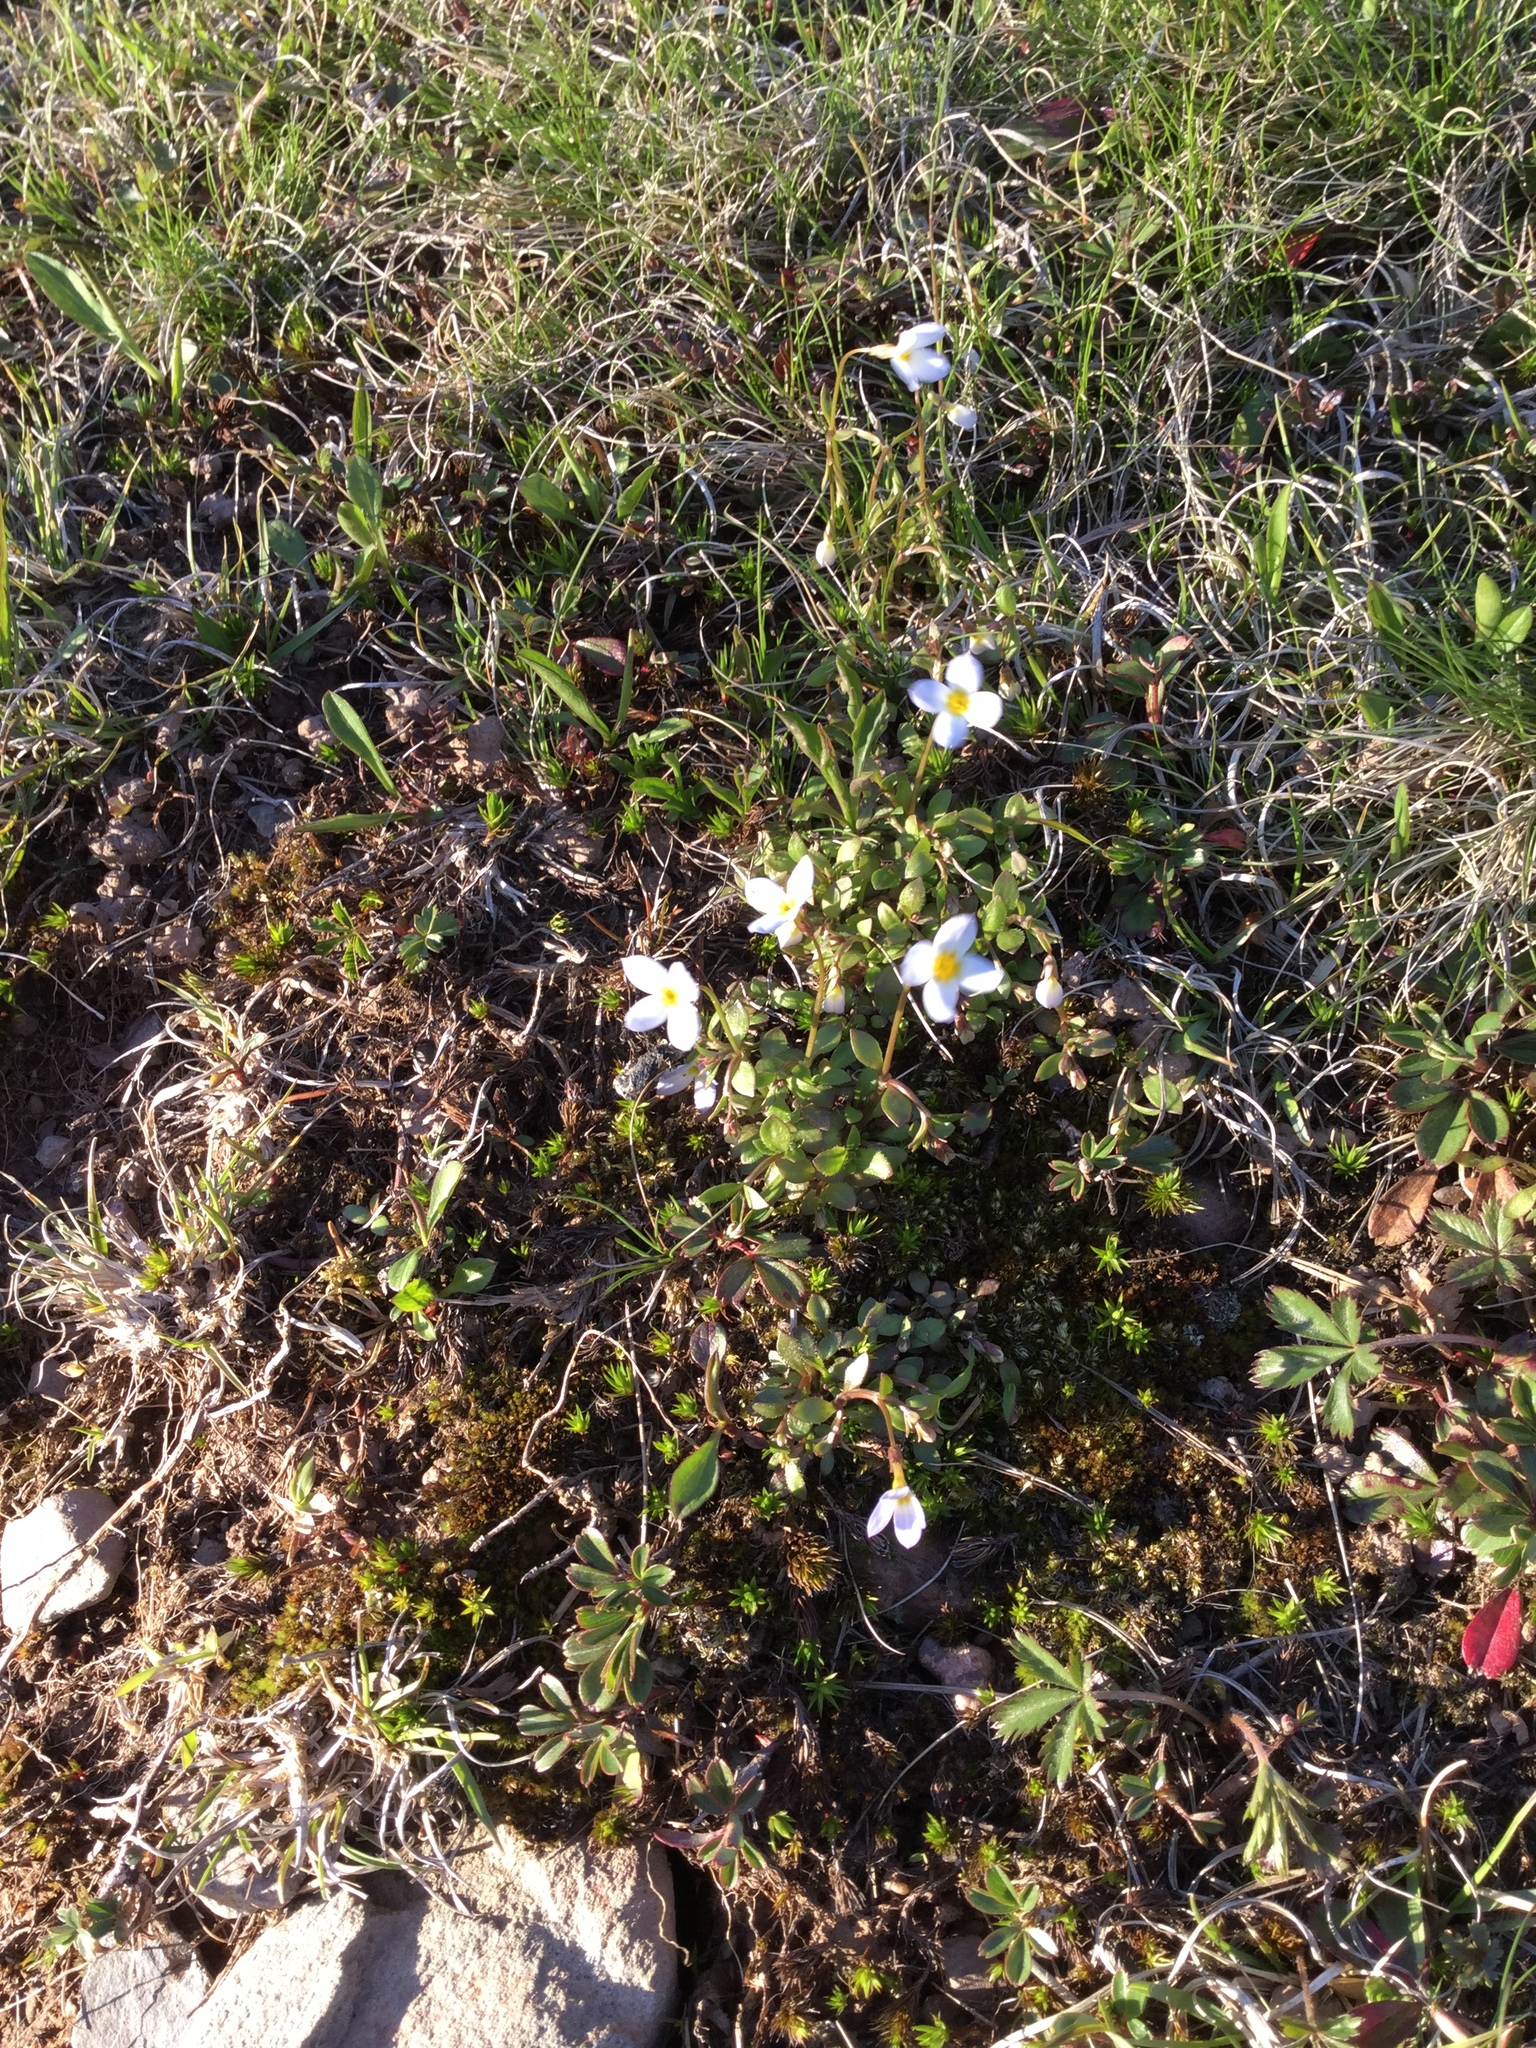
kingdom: Plantae
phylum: Tracheophyta
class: Magnoliopsida
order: Gentianales
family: Rubiaceae
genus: Houstonia
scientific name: Houstonia caerulea
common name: Bluets
